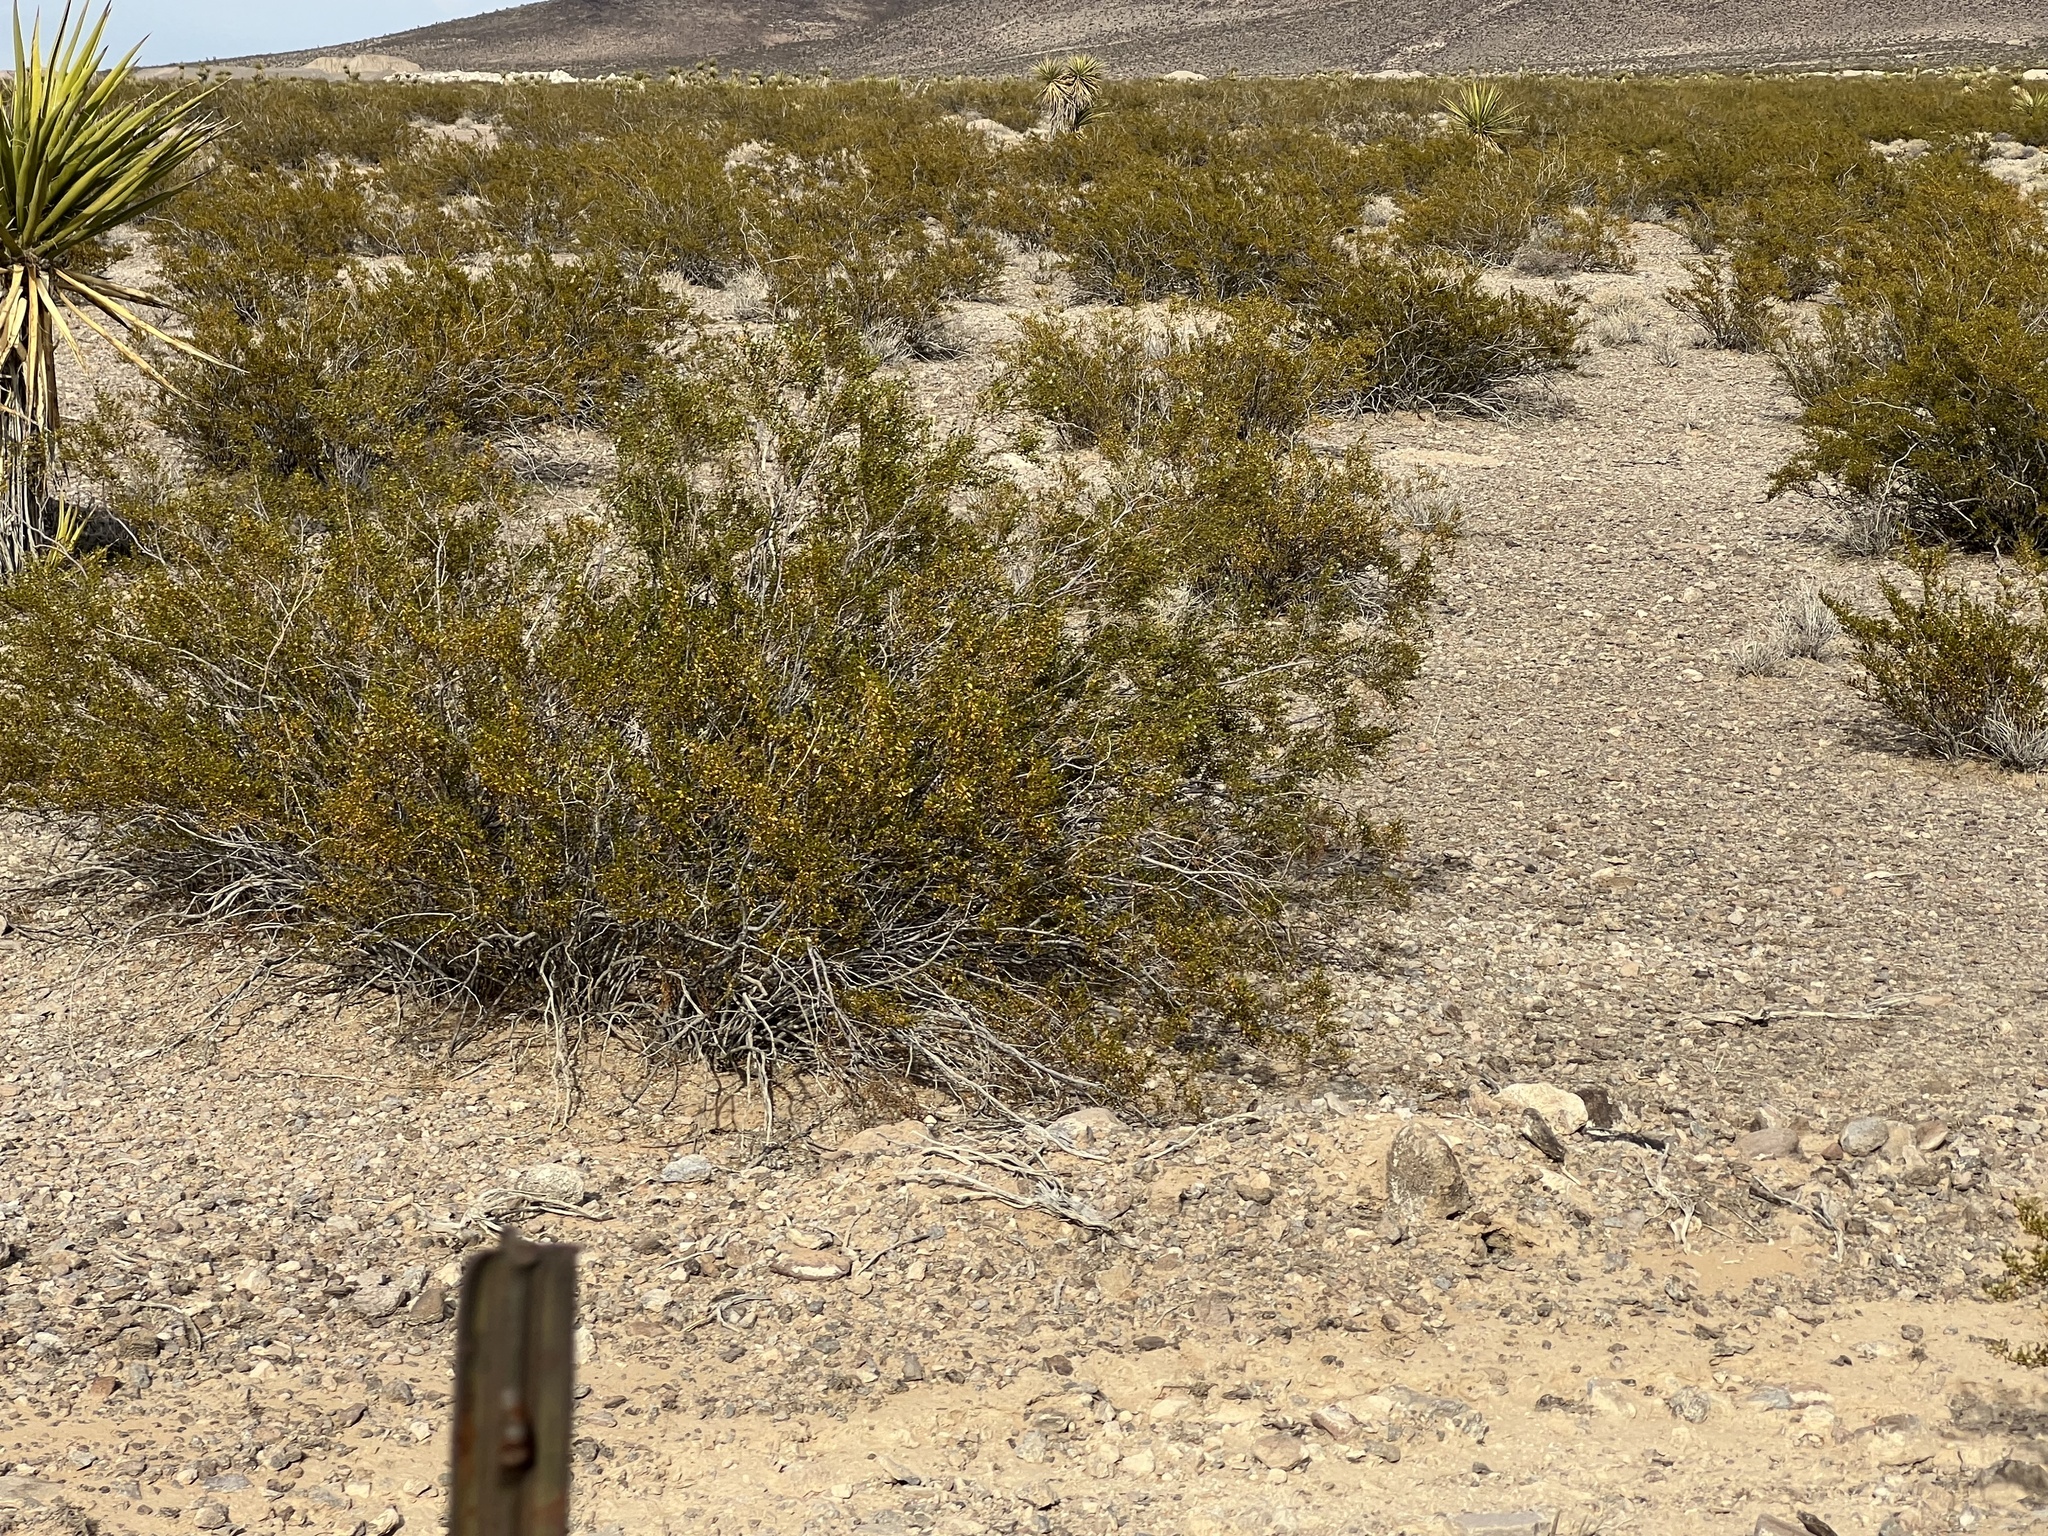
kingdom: Plantae
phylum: Tracheophyta
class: Magnoliopsida
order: Zygophyllales
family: Zygophyllaceae
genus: Larrea
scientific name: Larrea tridentata
